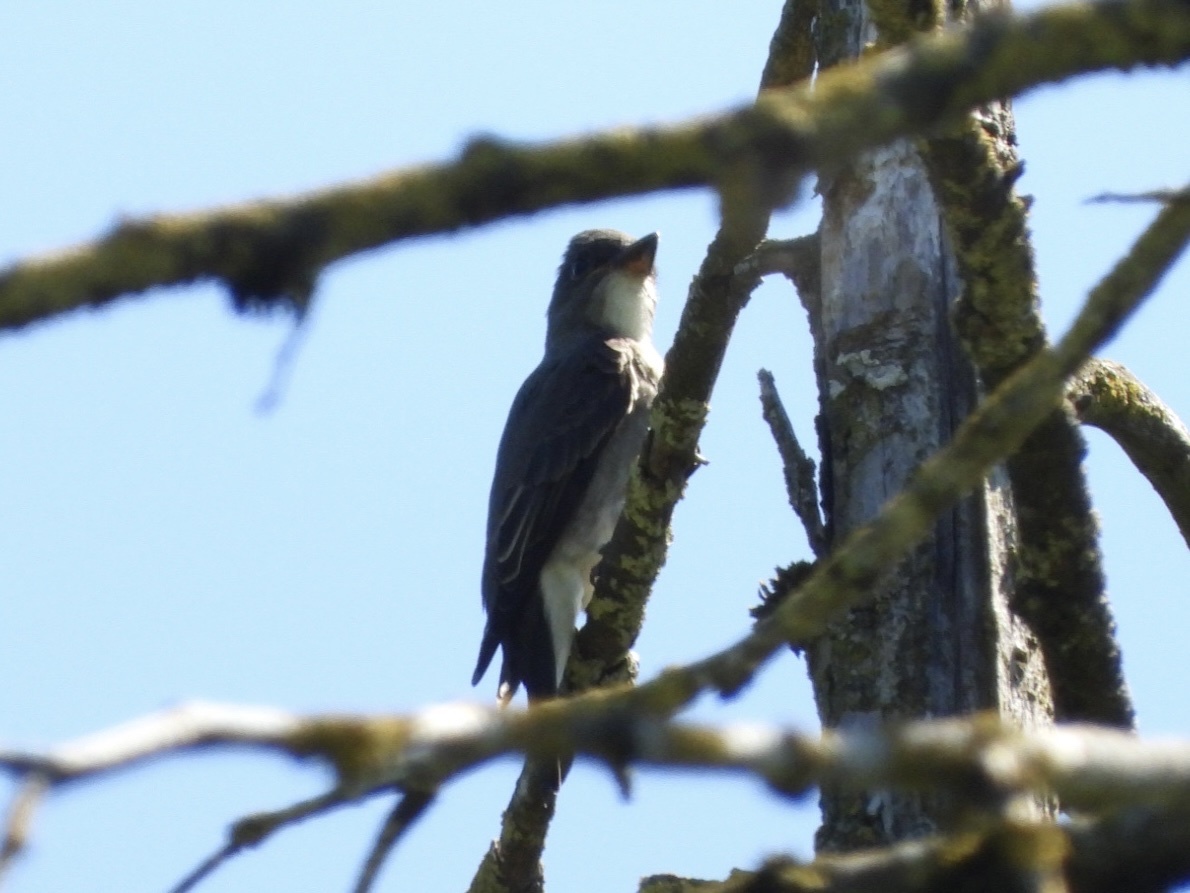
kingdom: Animalia
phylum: Chordata
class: Aves
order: Passeriformes
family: Tyrannidae
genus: Contopus
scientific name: Contopus cooperi
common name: Olive-sided flycatcher
